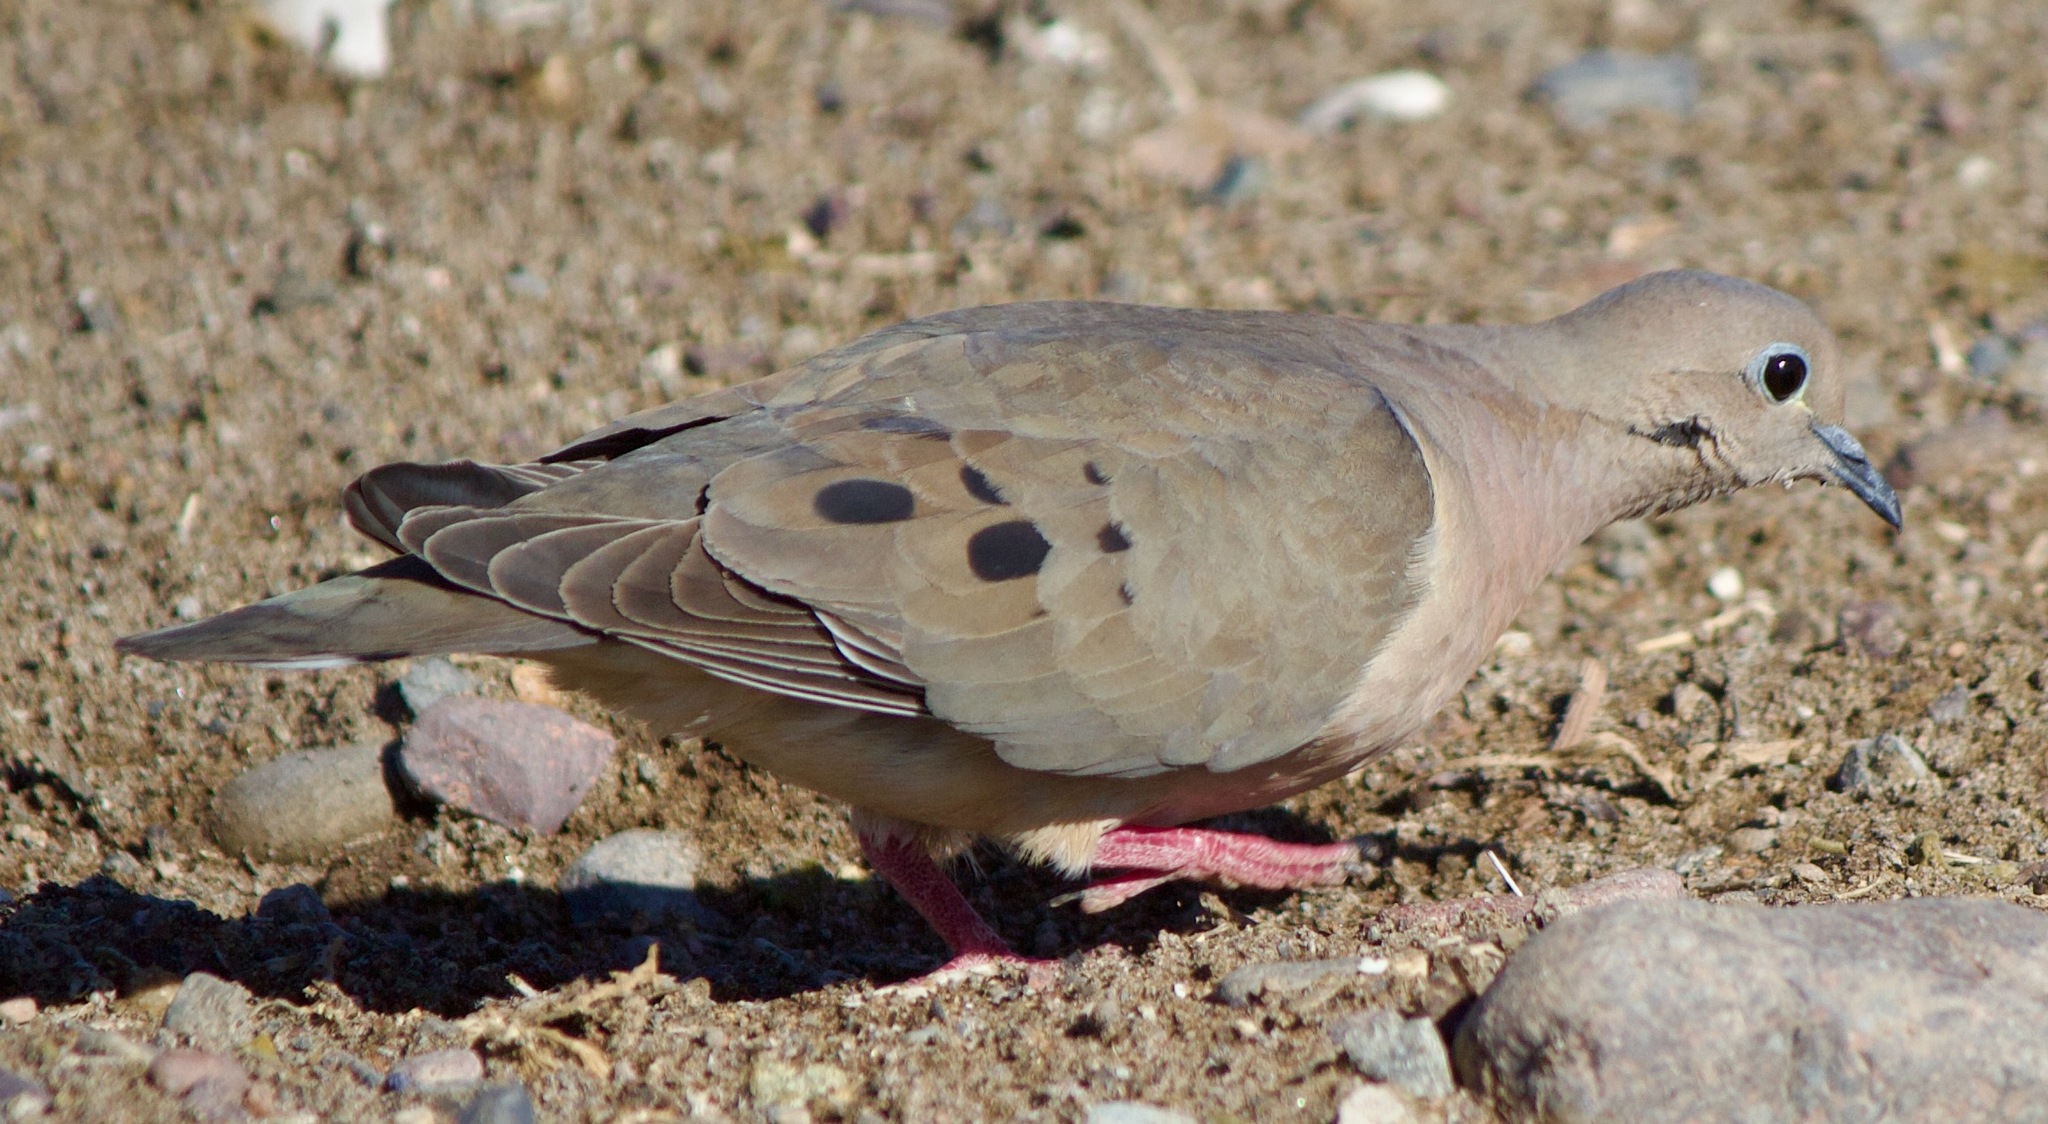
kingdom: Animalia
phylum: Chordata
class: Aves
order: Columbiformes
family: Columbidae
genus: Zenaida
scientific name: Zenaida auriculata
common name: Eared dove
